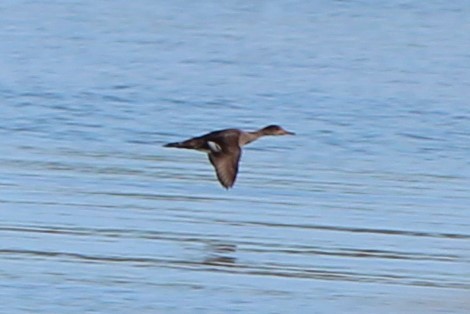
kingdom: Animalia
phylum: Chordata
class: Aves
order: Anseriformes
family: Anatidae
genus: Lophodytes
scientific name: Lophodytes cucullatus
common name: Hooded merganser
